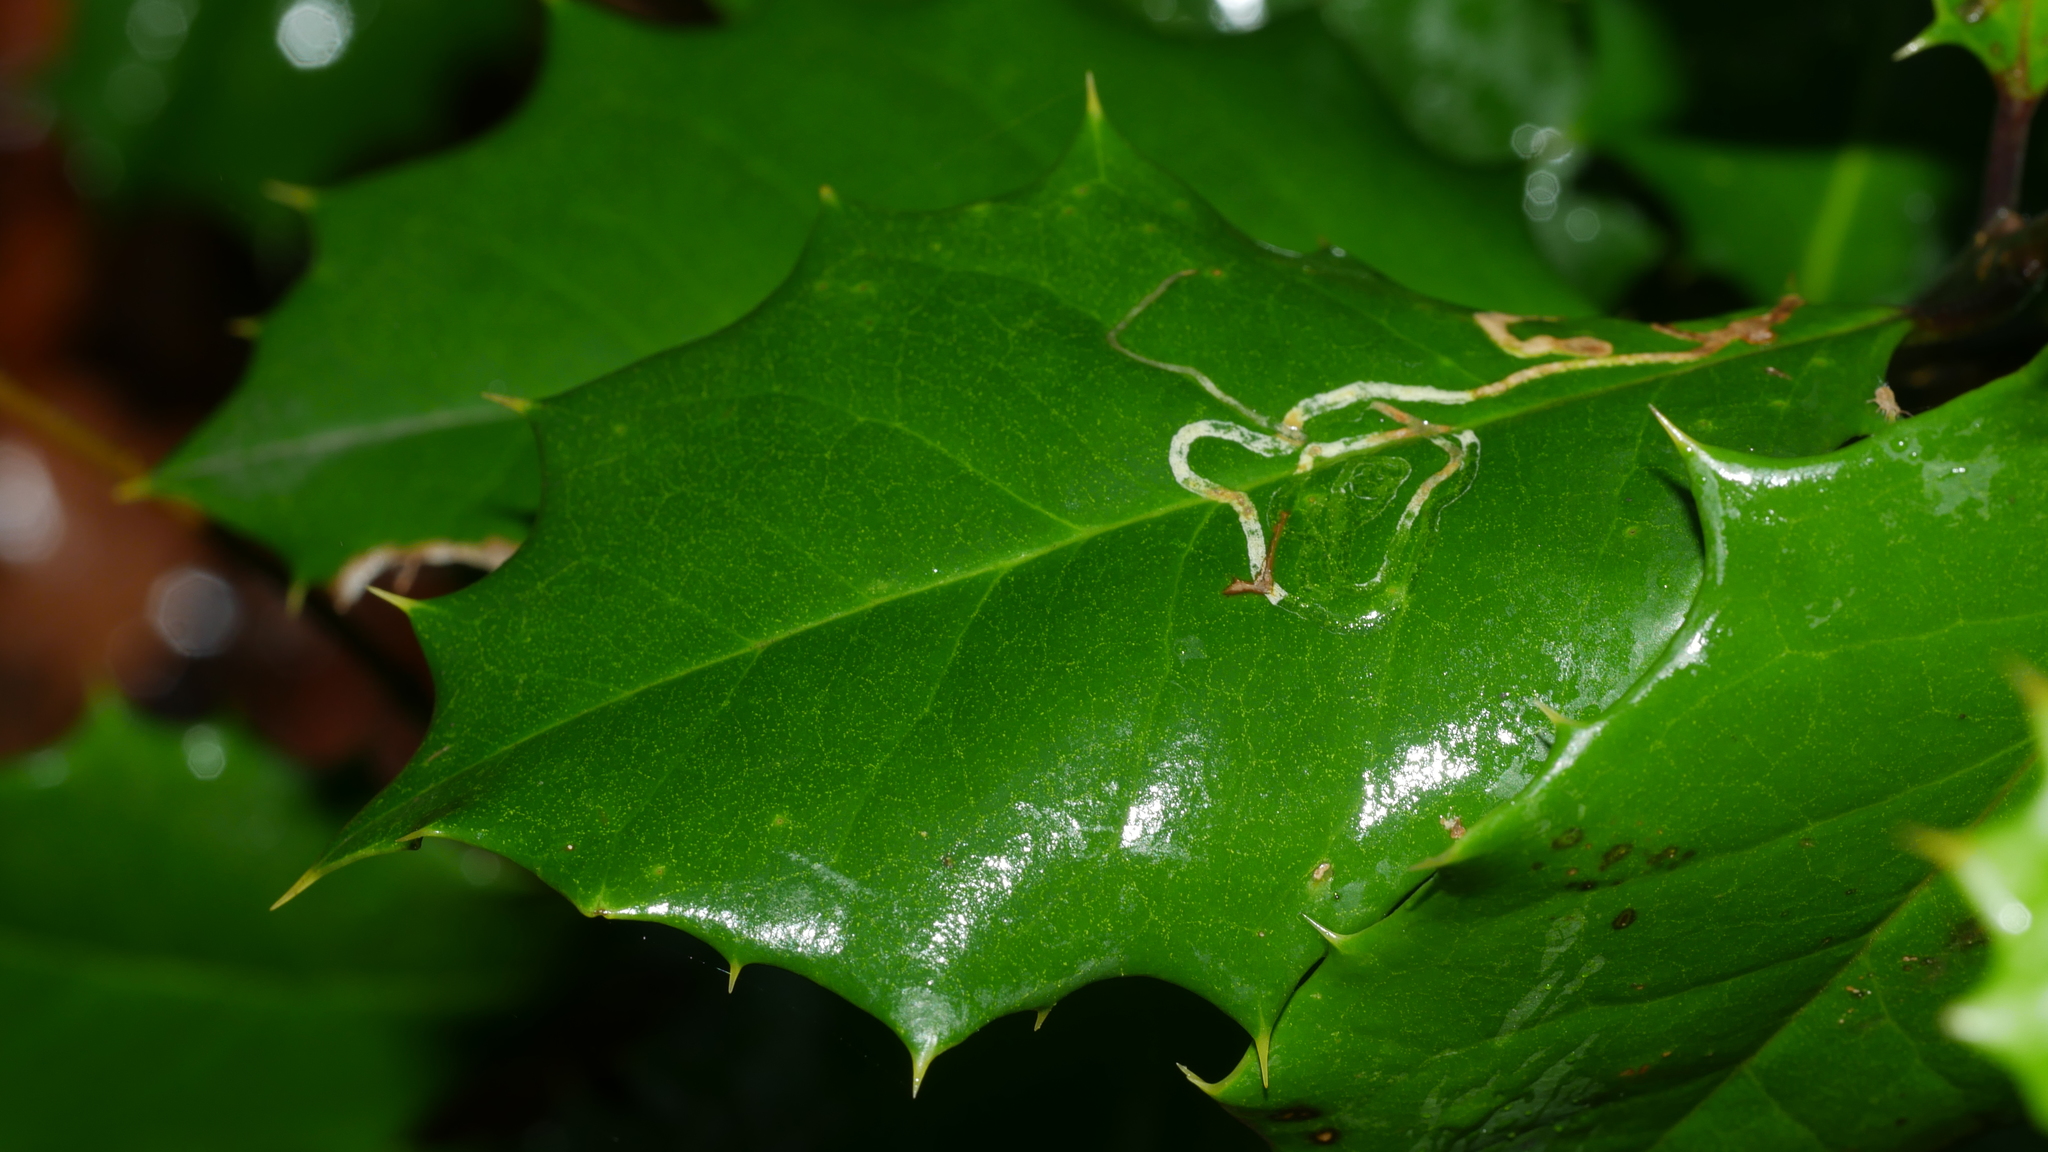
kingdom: Animalia
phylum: Arthropoda
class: Insecta
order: Diptera
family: Agromyzidae
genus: Phytomyza
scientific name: Phytomyza opacae
